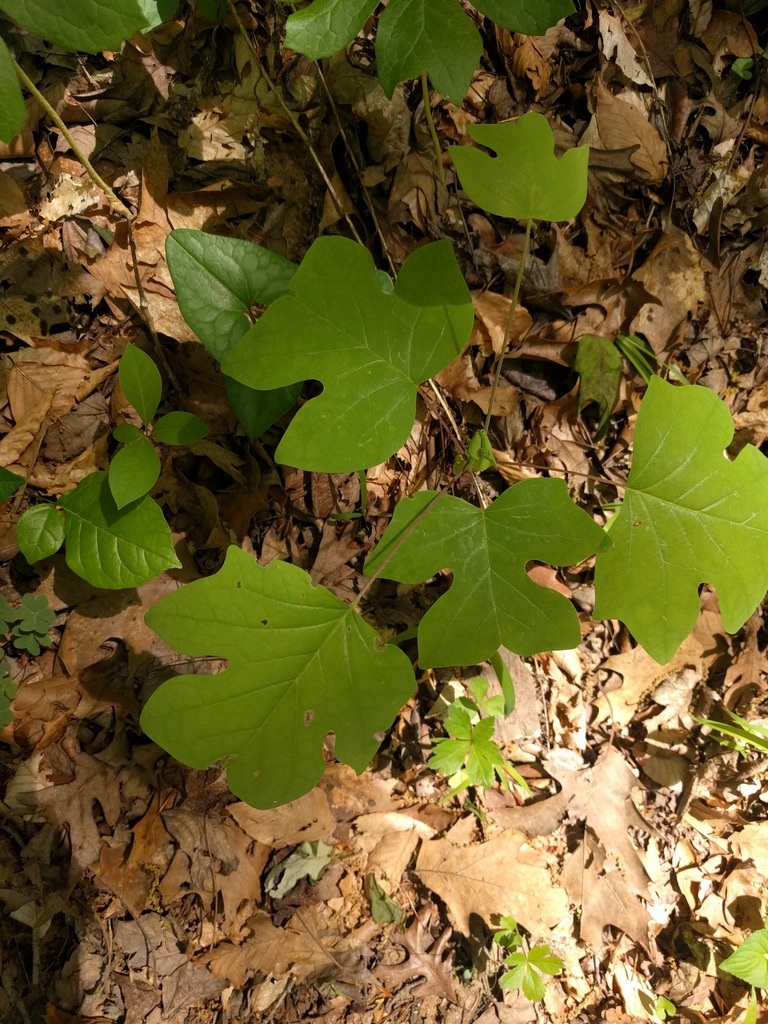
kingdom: Plantae
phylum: Tracheophyta
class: Magnoliopsida
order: Magnoliales
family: Magnoliaceae
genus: Liriodendron
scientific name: Liriodendron tulipifera
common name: Tulip tree
